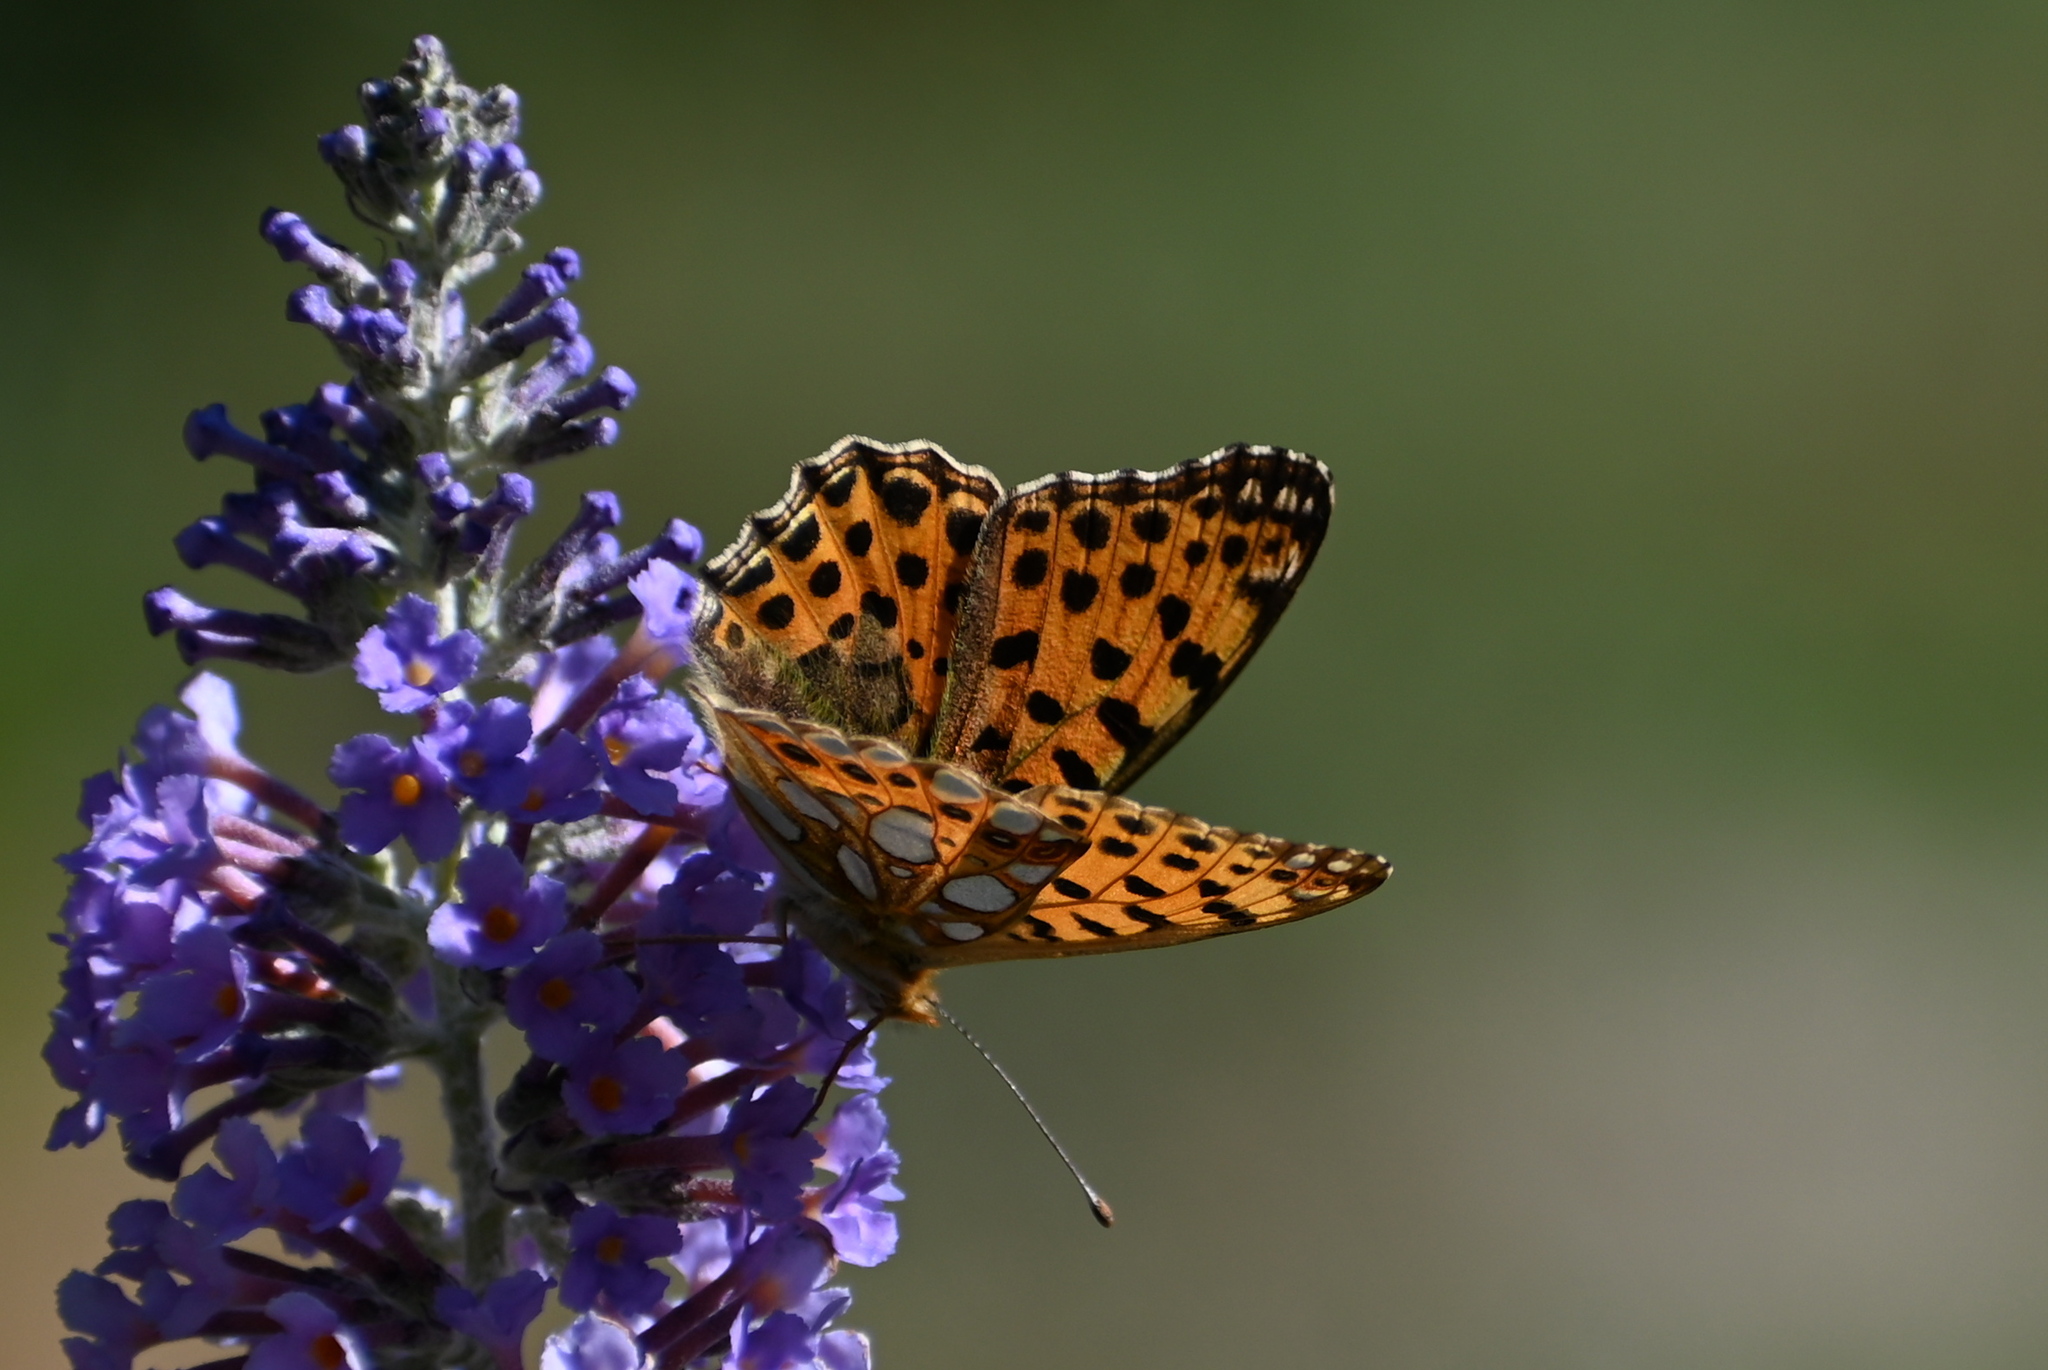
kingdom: Animalia
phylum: Arthropoda
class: Insecta
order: Lepidoptera
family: Nymphalidae
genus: Issoria
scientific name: Issoria lathonia
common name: Queen of spain fritillary
